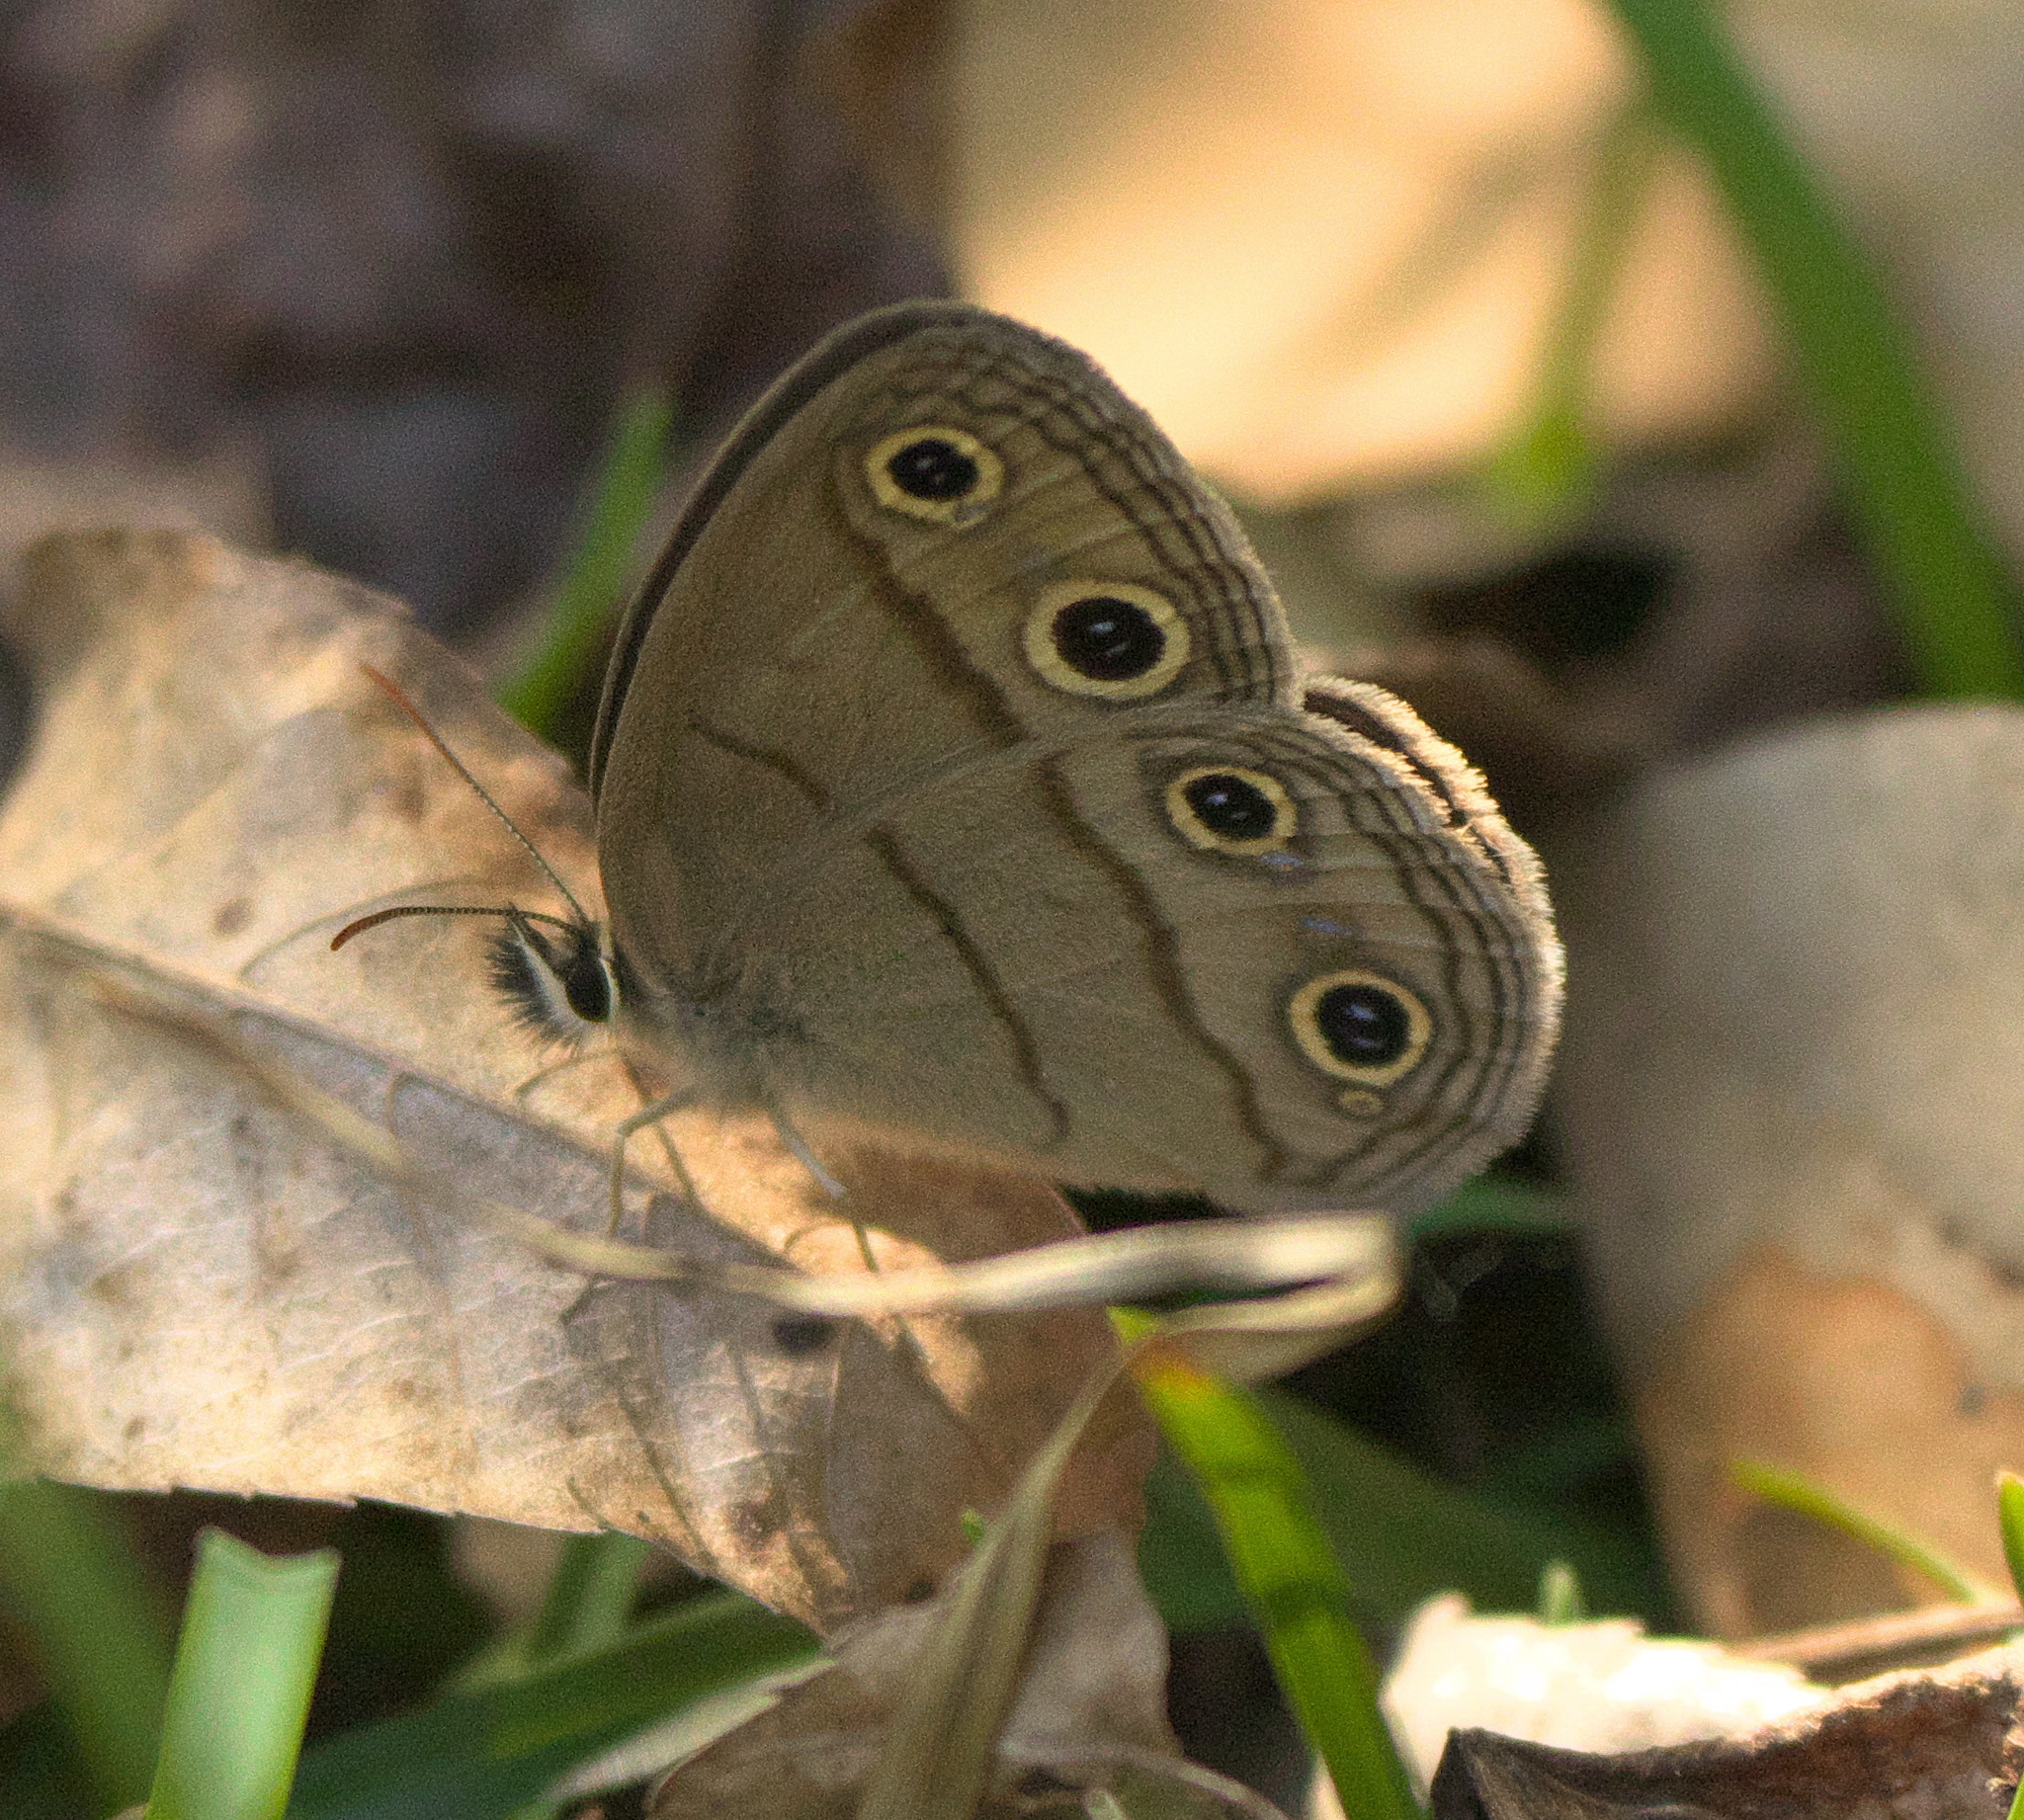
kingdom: Animalia
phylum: Arthropoda
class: Insecta
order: Lepidoptera
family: Nymphalidae
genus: Euptychia
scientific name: Euptychia cymela
